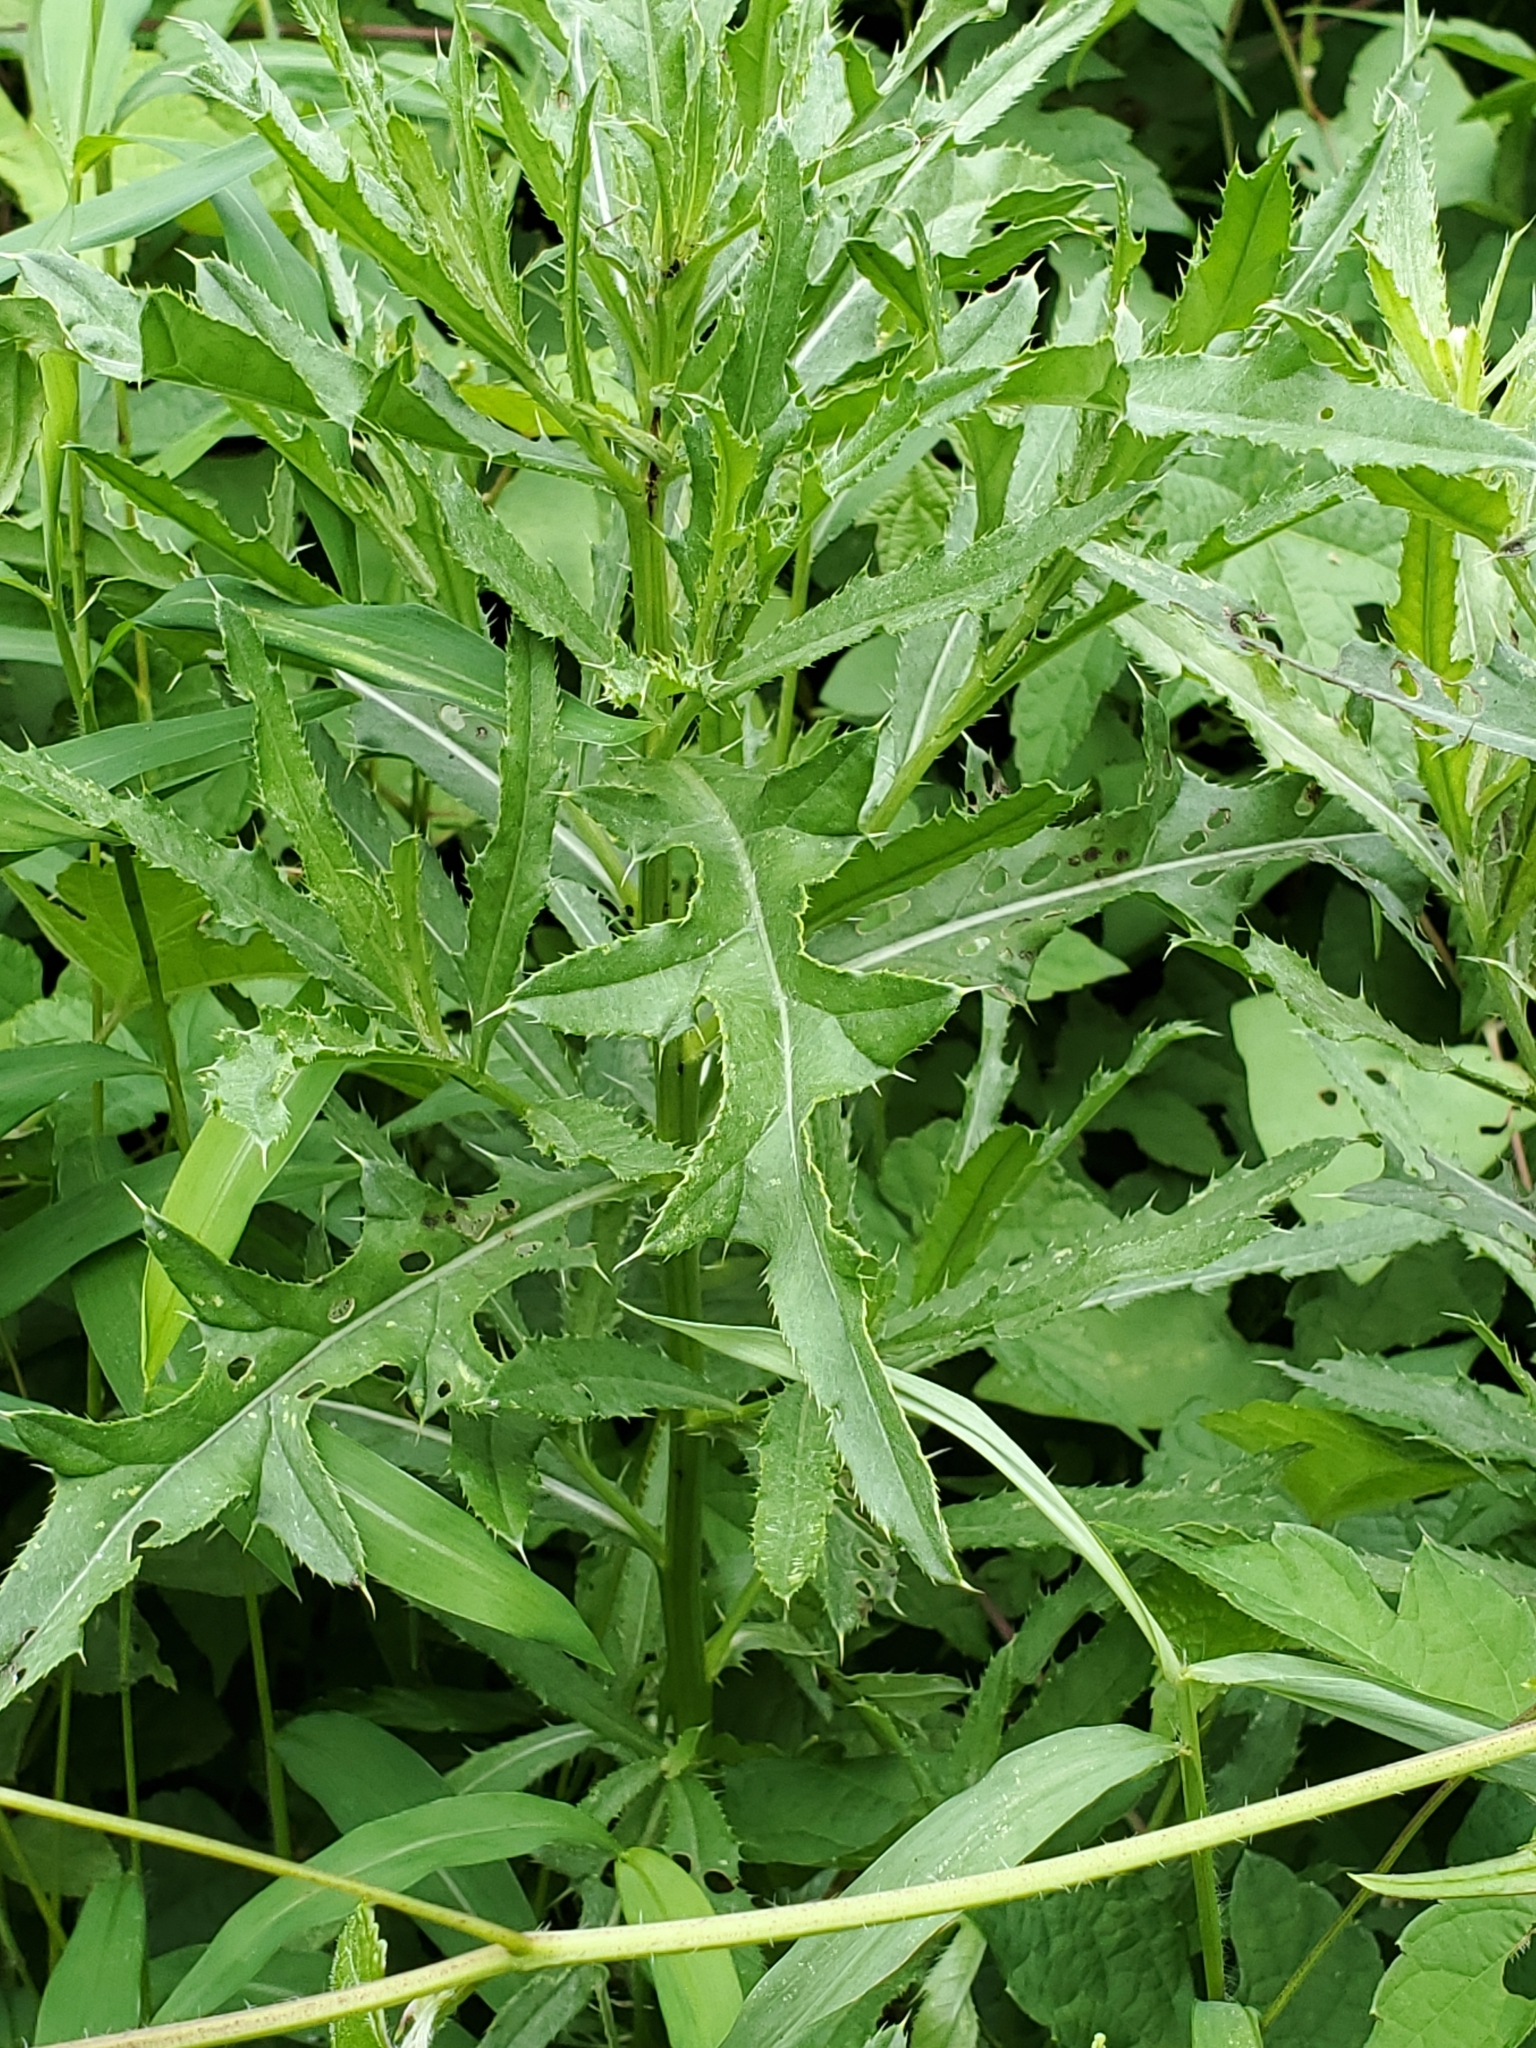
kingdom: Plantae
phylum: Tracheophyta
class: Magnoliopsida
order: Asterales
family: Asteraceae
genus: Cirsium
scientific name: Cirsium arvense
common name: Creeping thistle
